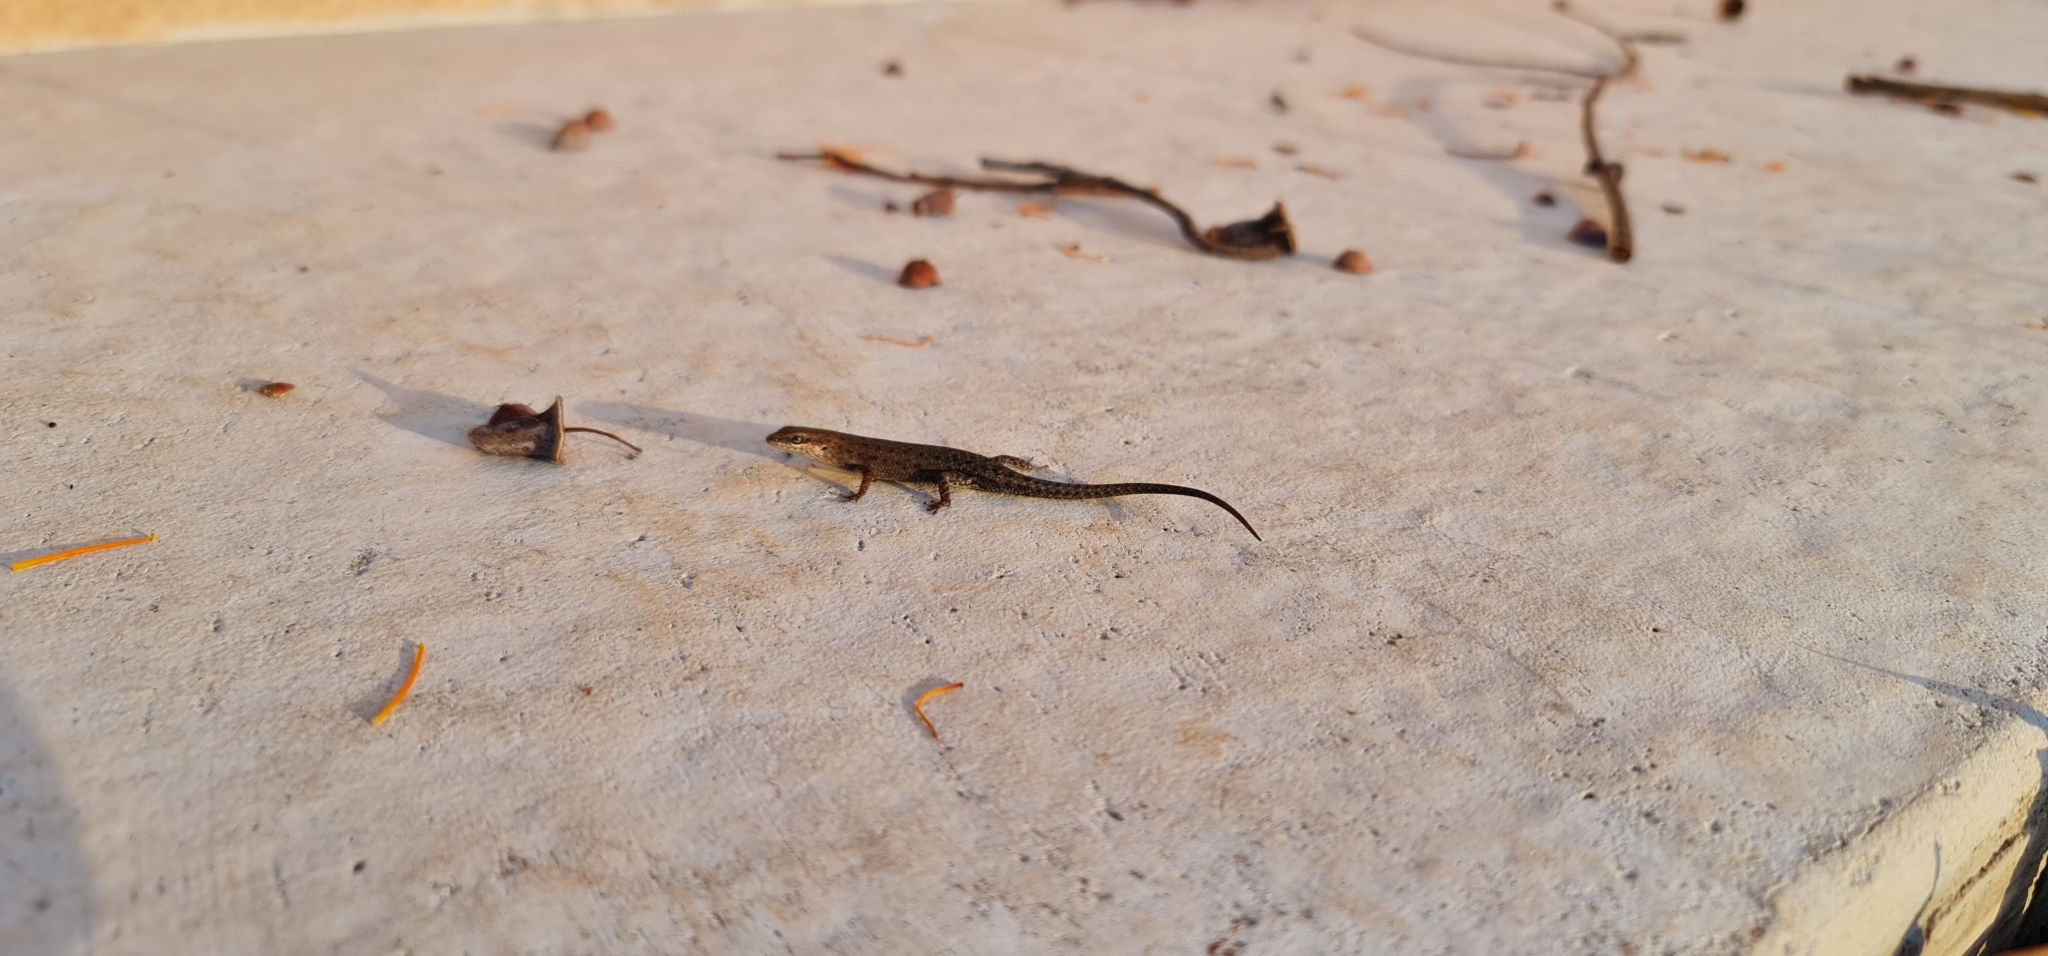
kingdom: Animalia
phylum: Chordata
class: Squamata
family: Scincidae
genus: Carlia
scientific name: Carlia amax
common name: Bauxite rainbow-skink
